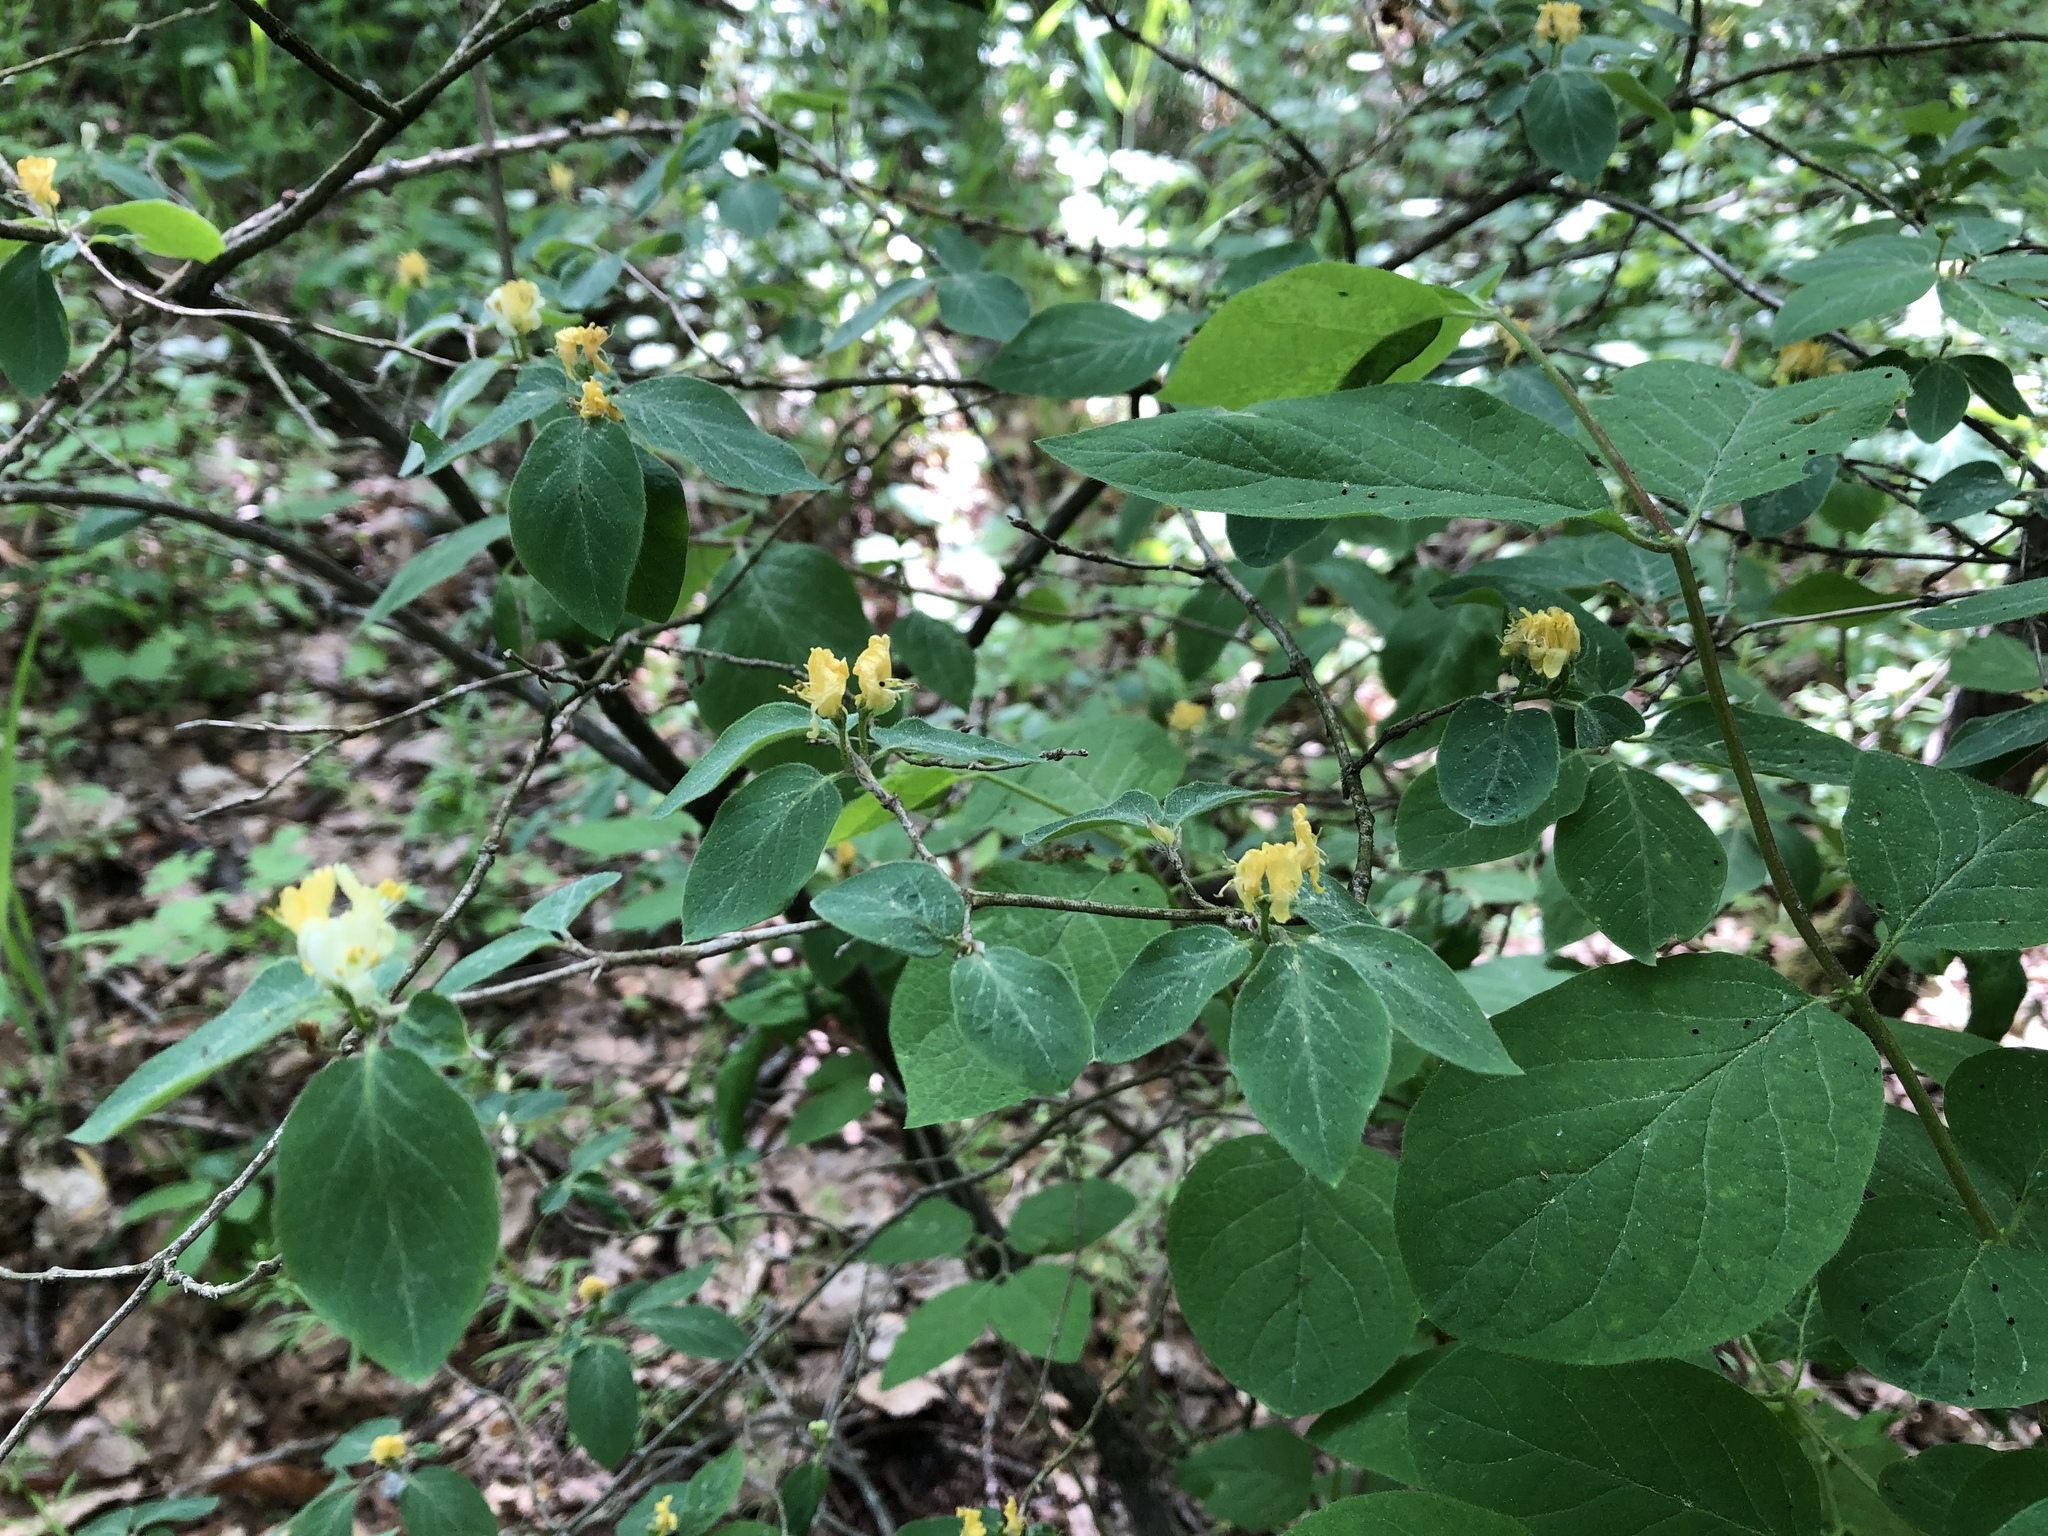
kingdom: Plantae
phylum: Tracheophyta
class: Magnoliopsida
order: Dipsacales
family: Caprifoliaceae
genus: Lonicera
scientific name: Lonicera xylosteum
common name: Fly honeysuckle
